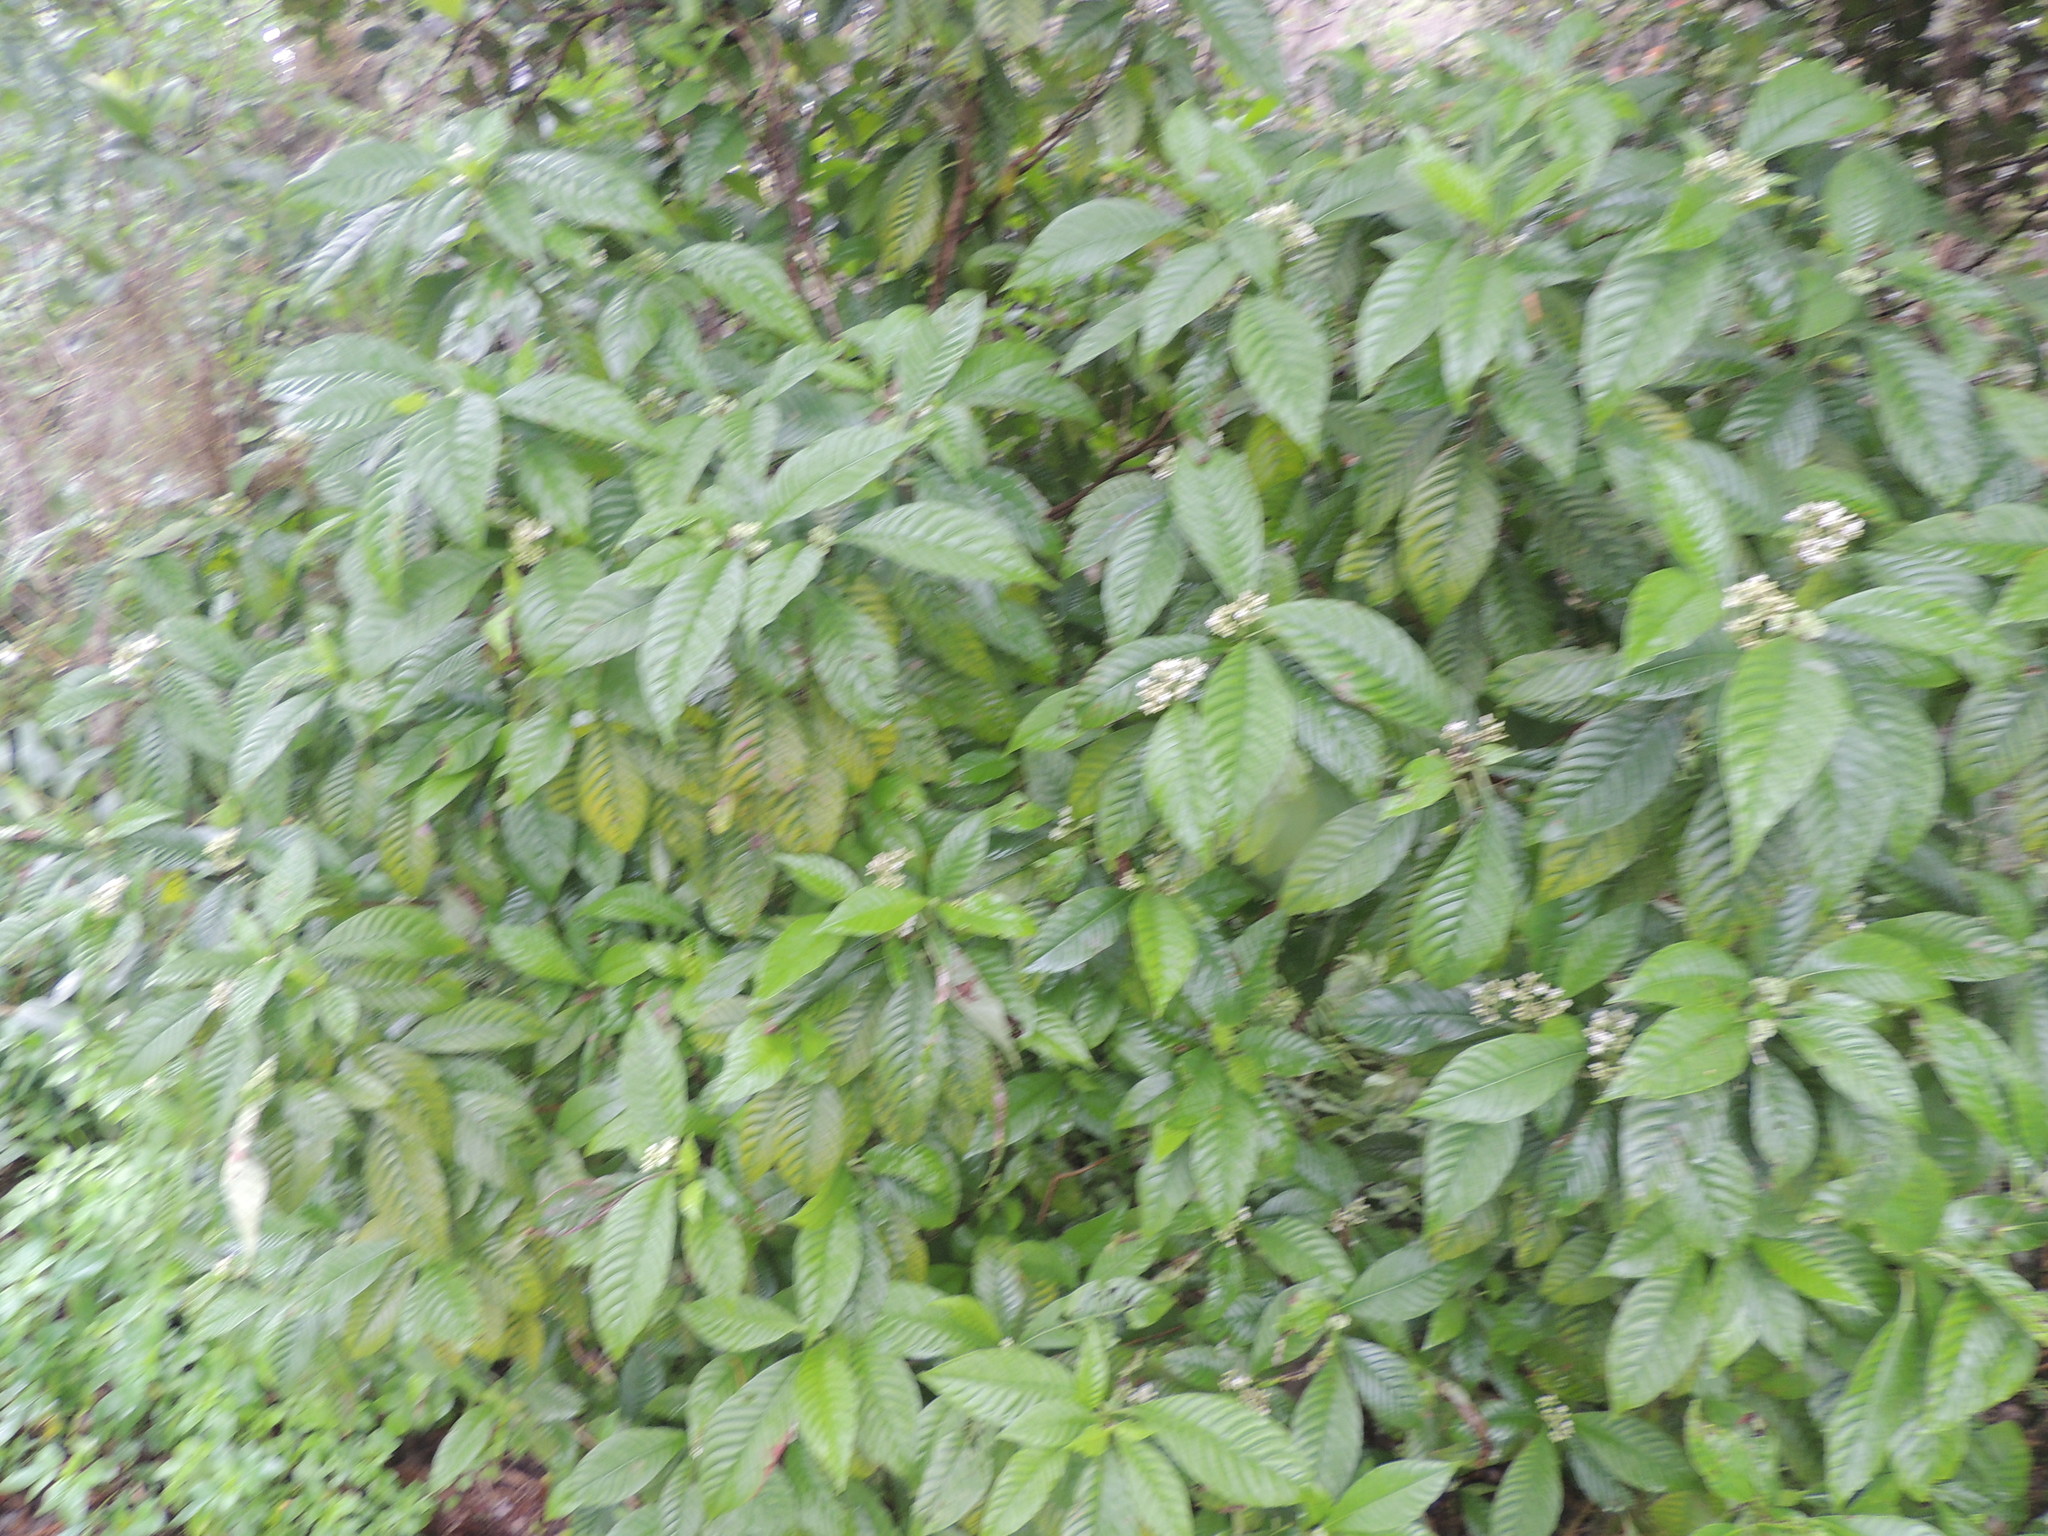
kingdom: Plantae
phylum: Tracheophyta
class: Magnoliopsida
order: Gentianales
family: Rubiaceae
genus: Psychotria
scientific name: Psychotria nervosa
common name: Bastard cankerberry
